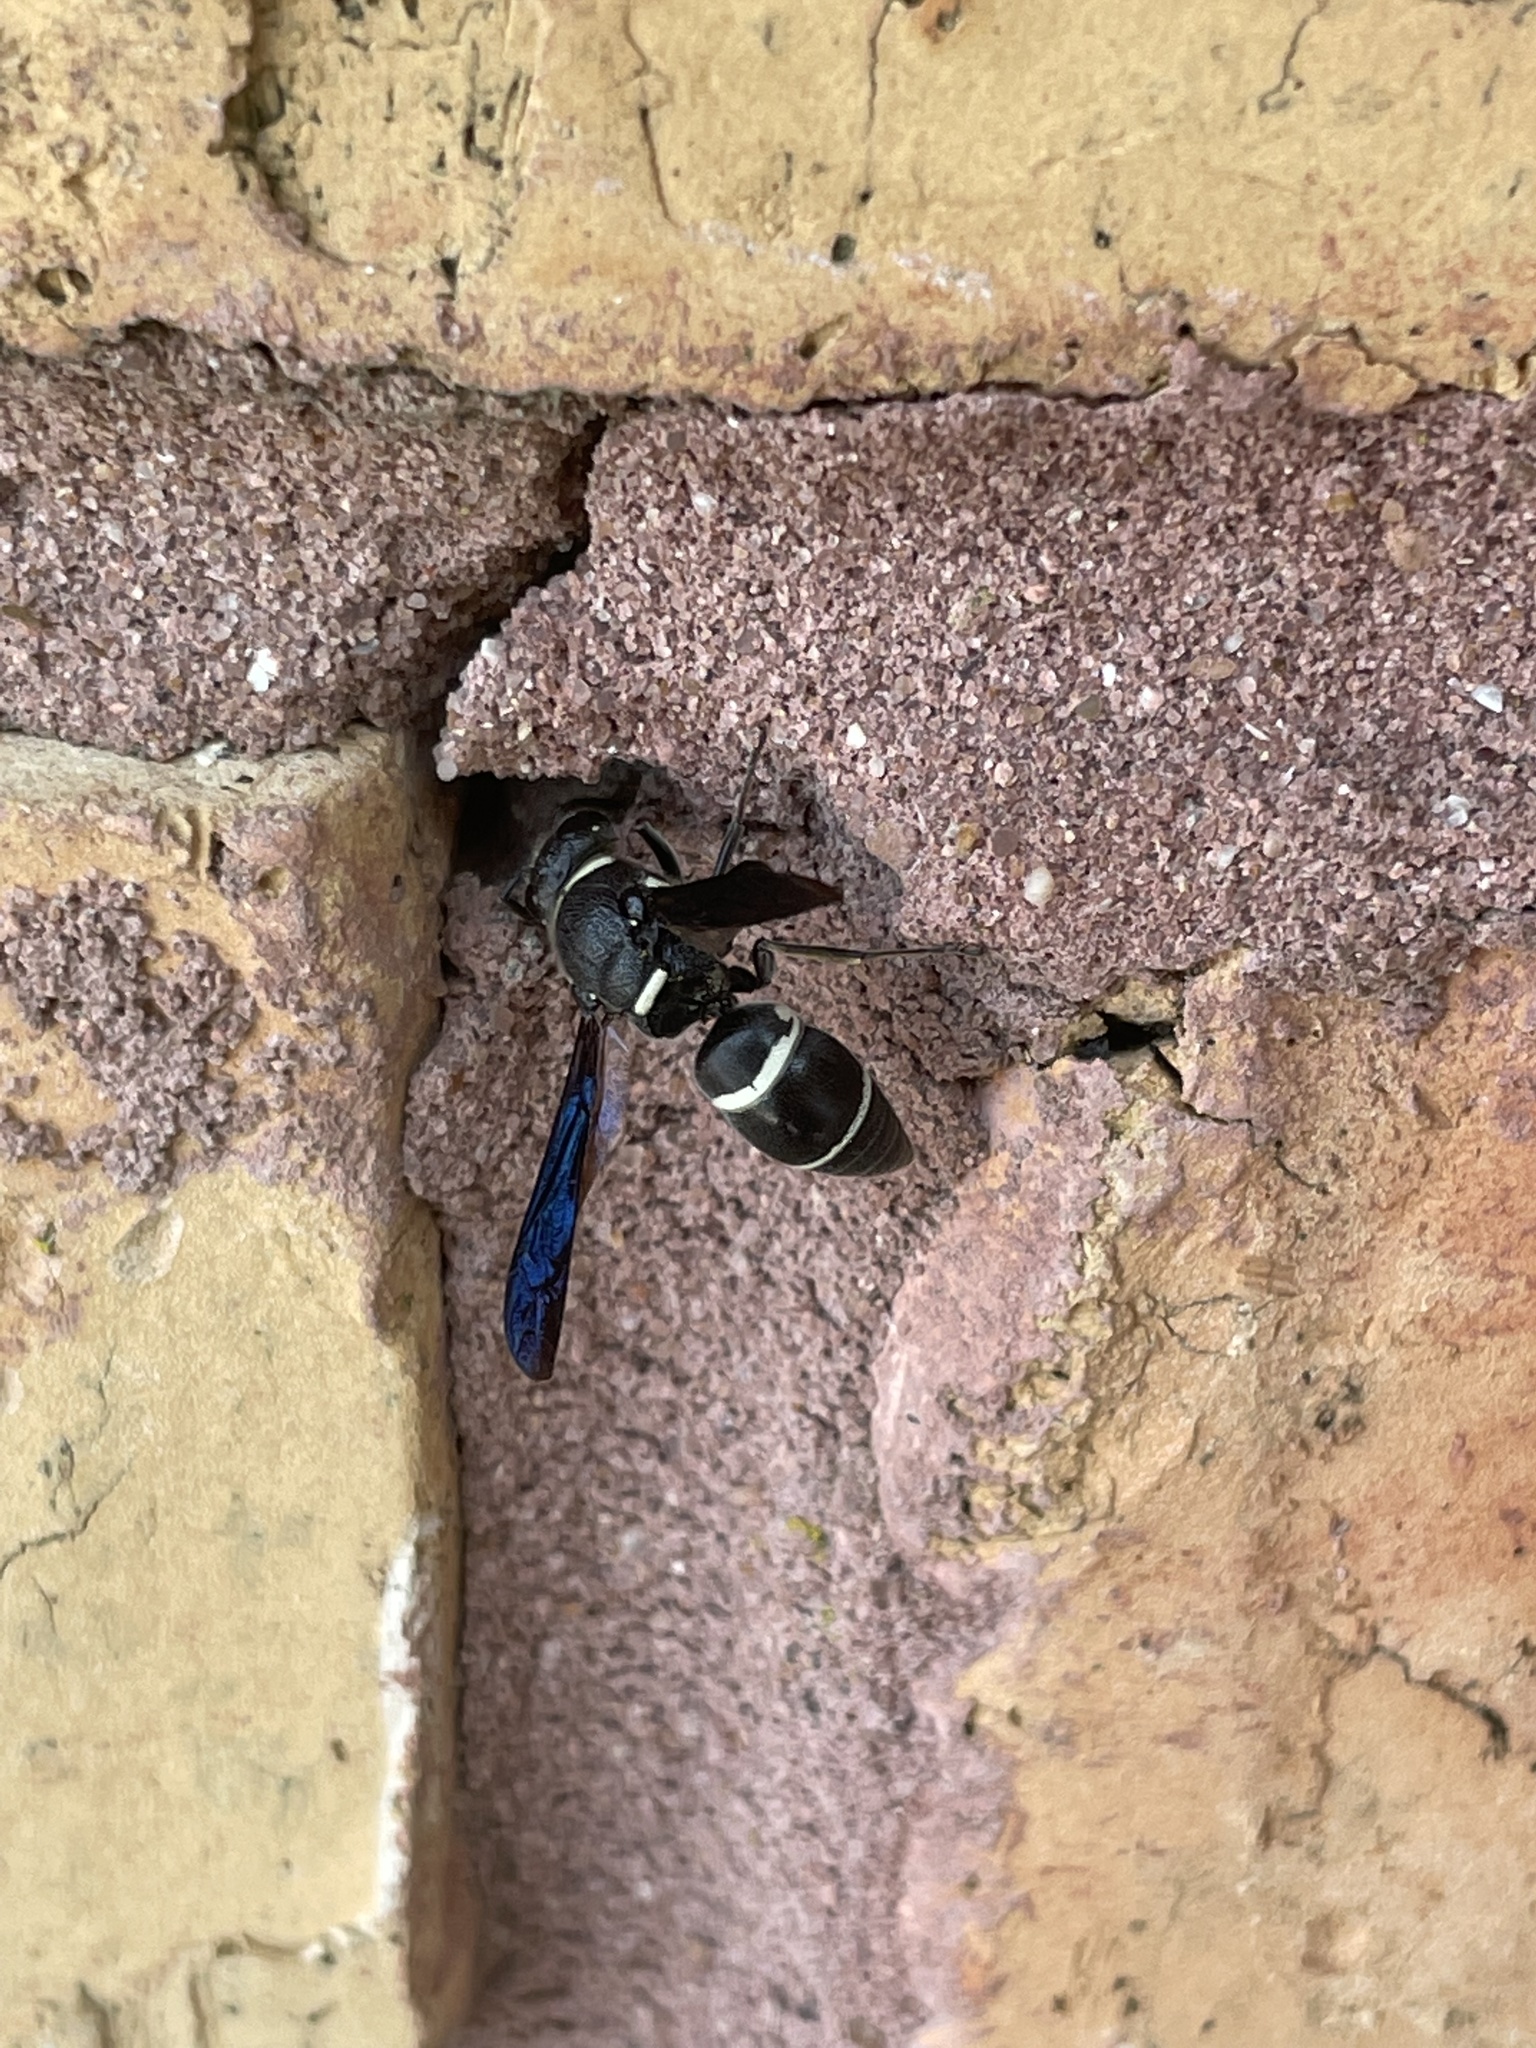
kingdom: Animalia
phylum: Arthropoda
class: Insecta
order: Hymenoptera
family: Eumenidae
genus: Euodynerus
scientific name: Euodynerus megaera
